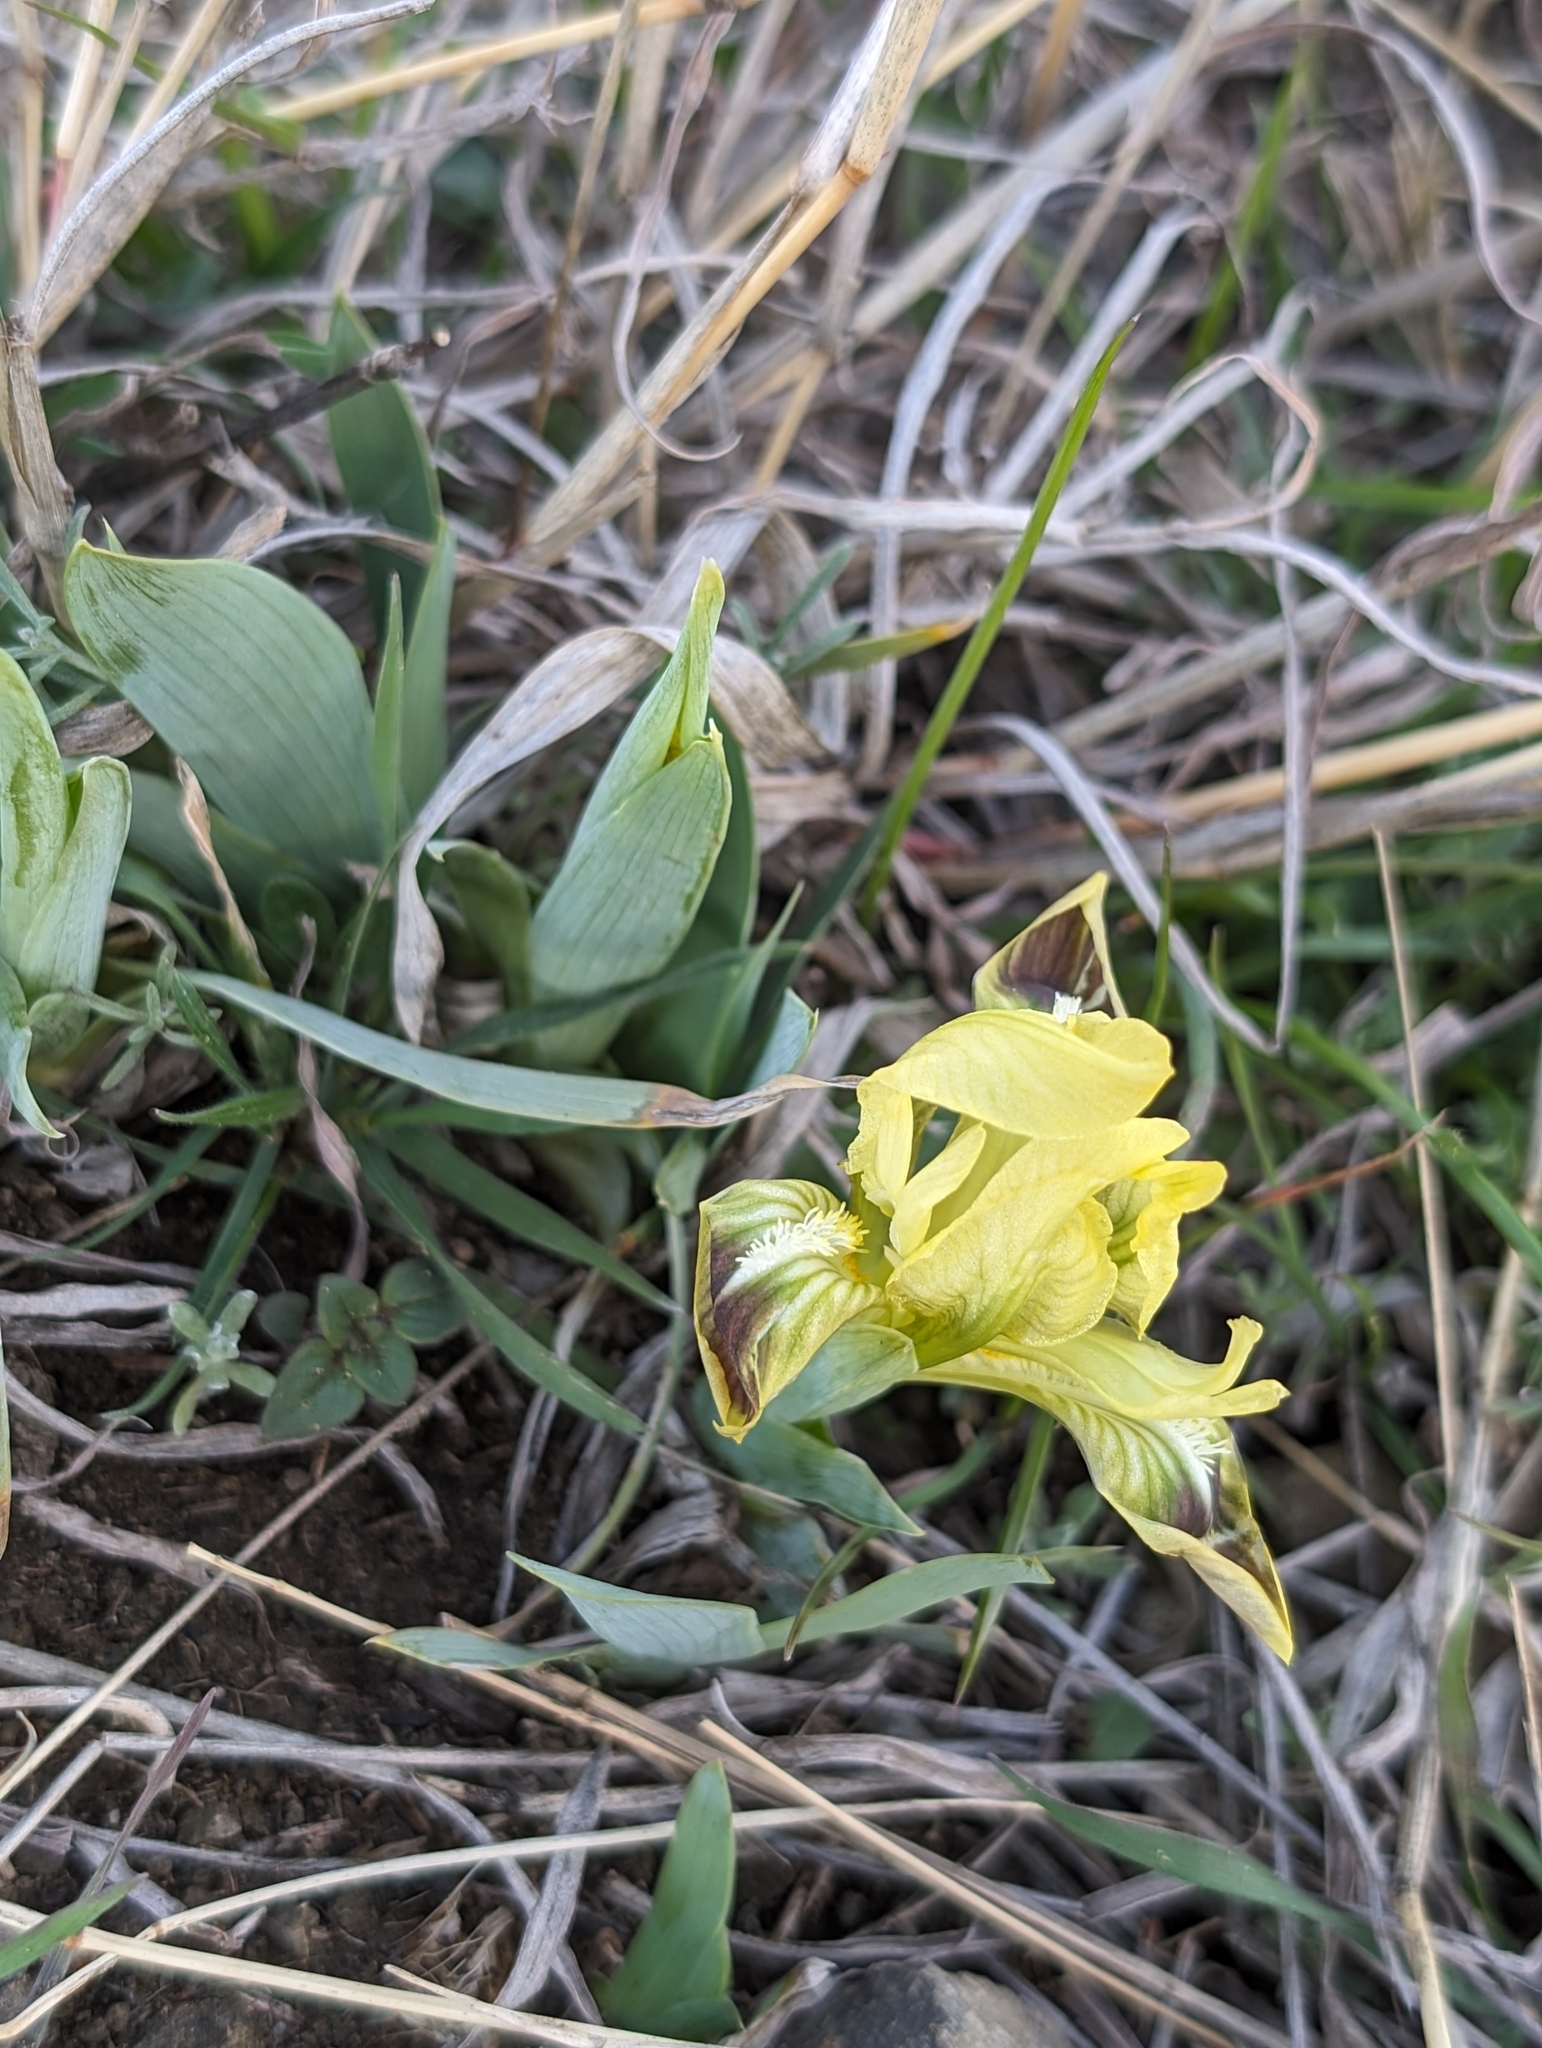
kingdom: Plantae
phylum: Tracheophyta
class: Liliopsida
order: Asparagales
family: Iridaceae
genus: Iris
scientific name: Iris pumila
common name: Dwarf iris
